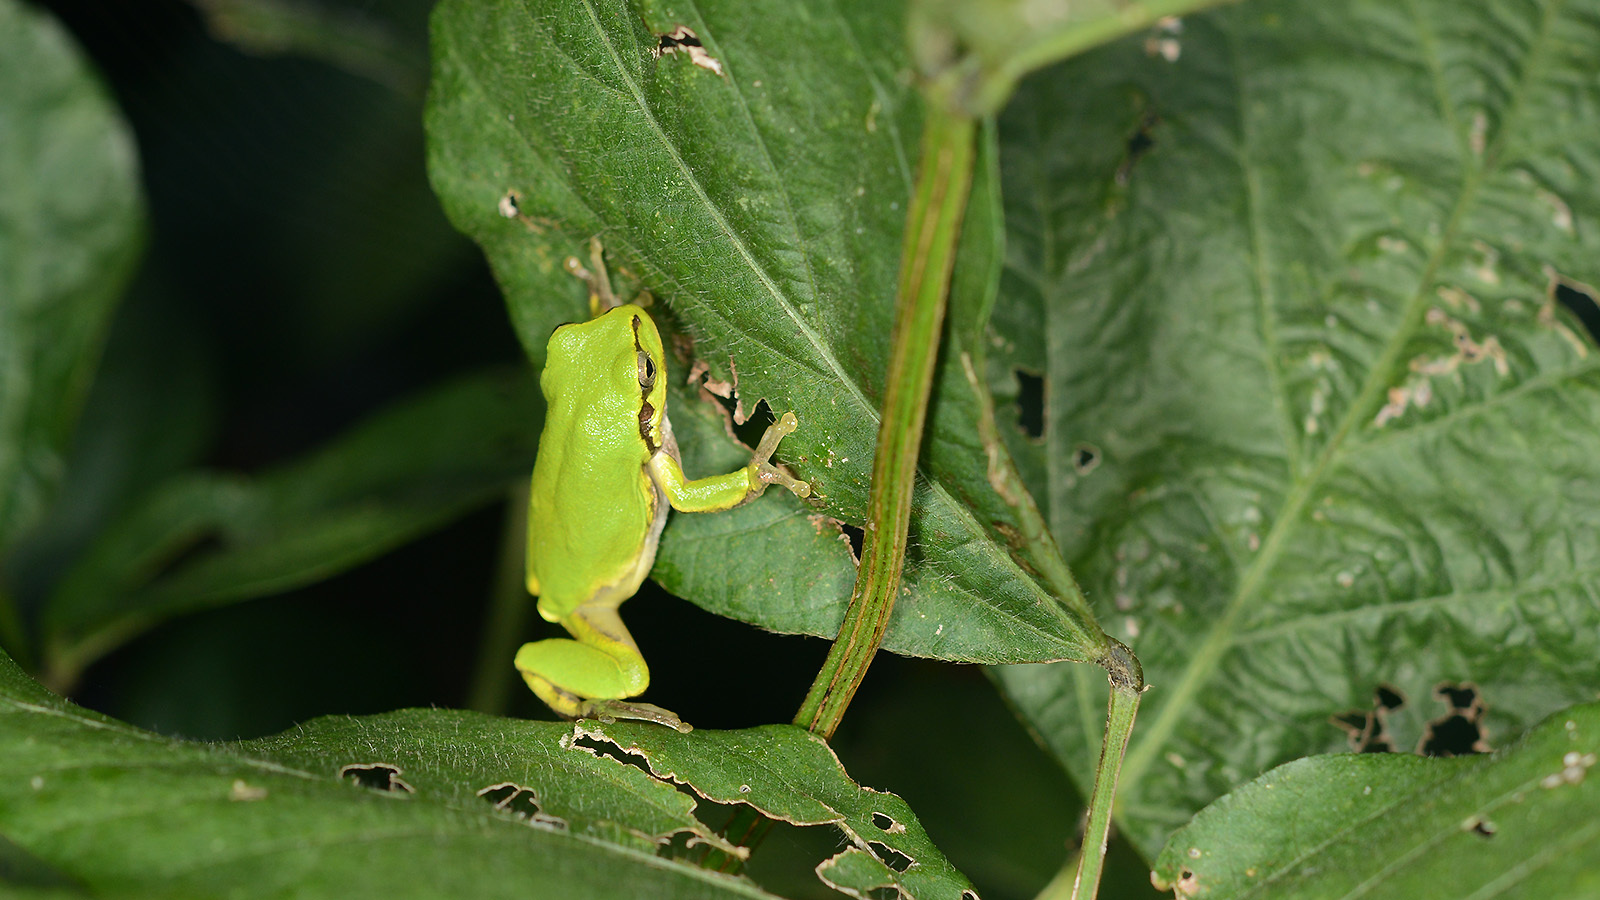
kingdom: Animalia
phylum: Chordata
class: Amphibia
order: Anura
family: Hylidae
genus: Dryophytes
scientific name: Dryophytes japonicus
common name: Japanese treefrog
